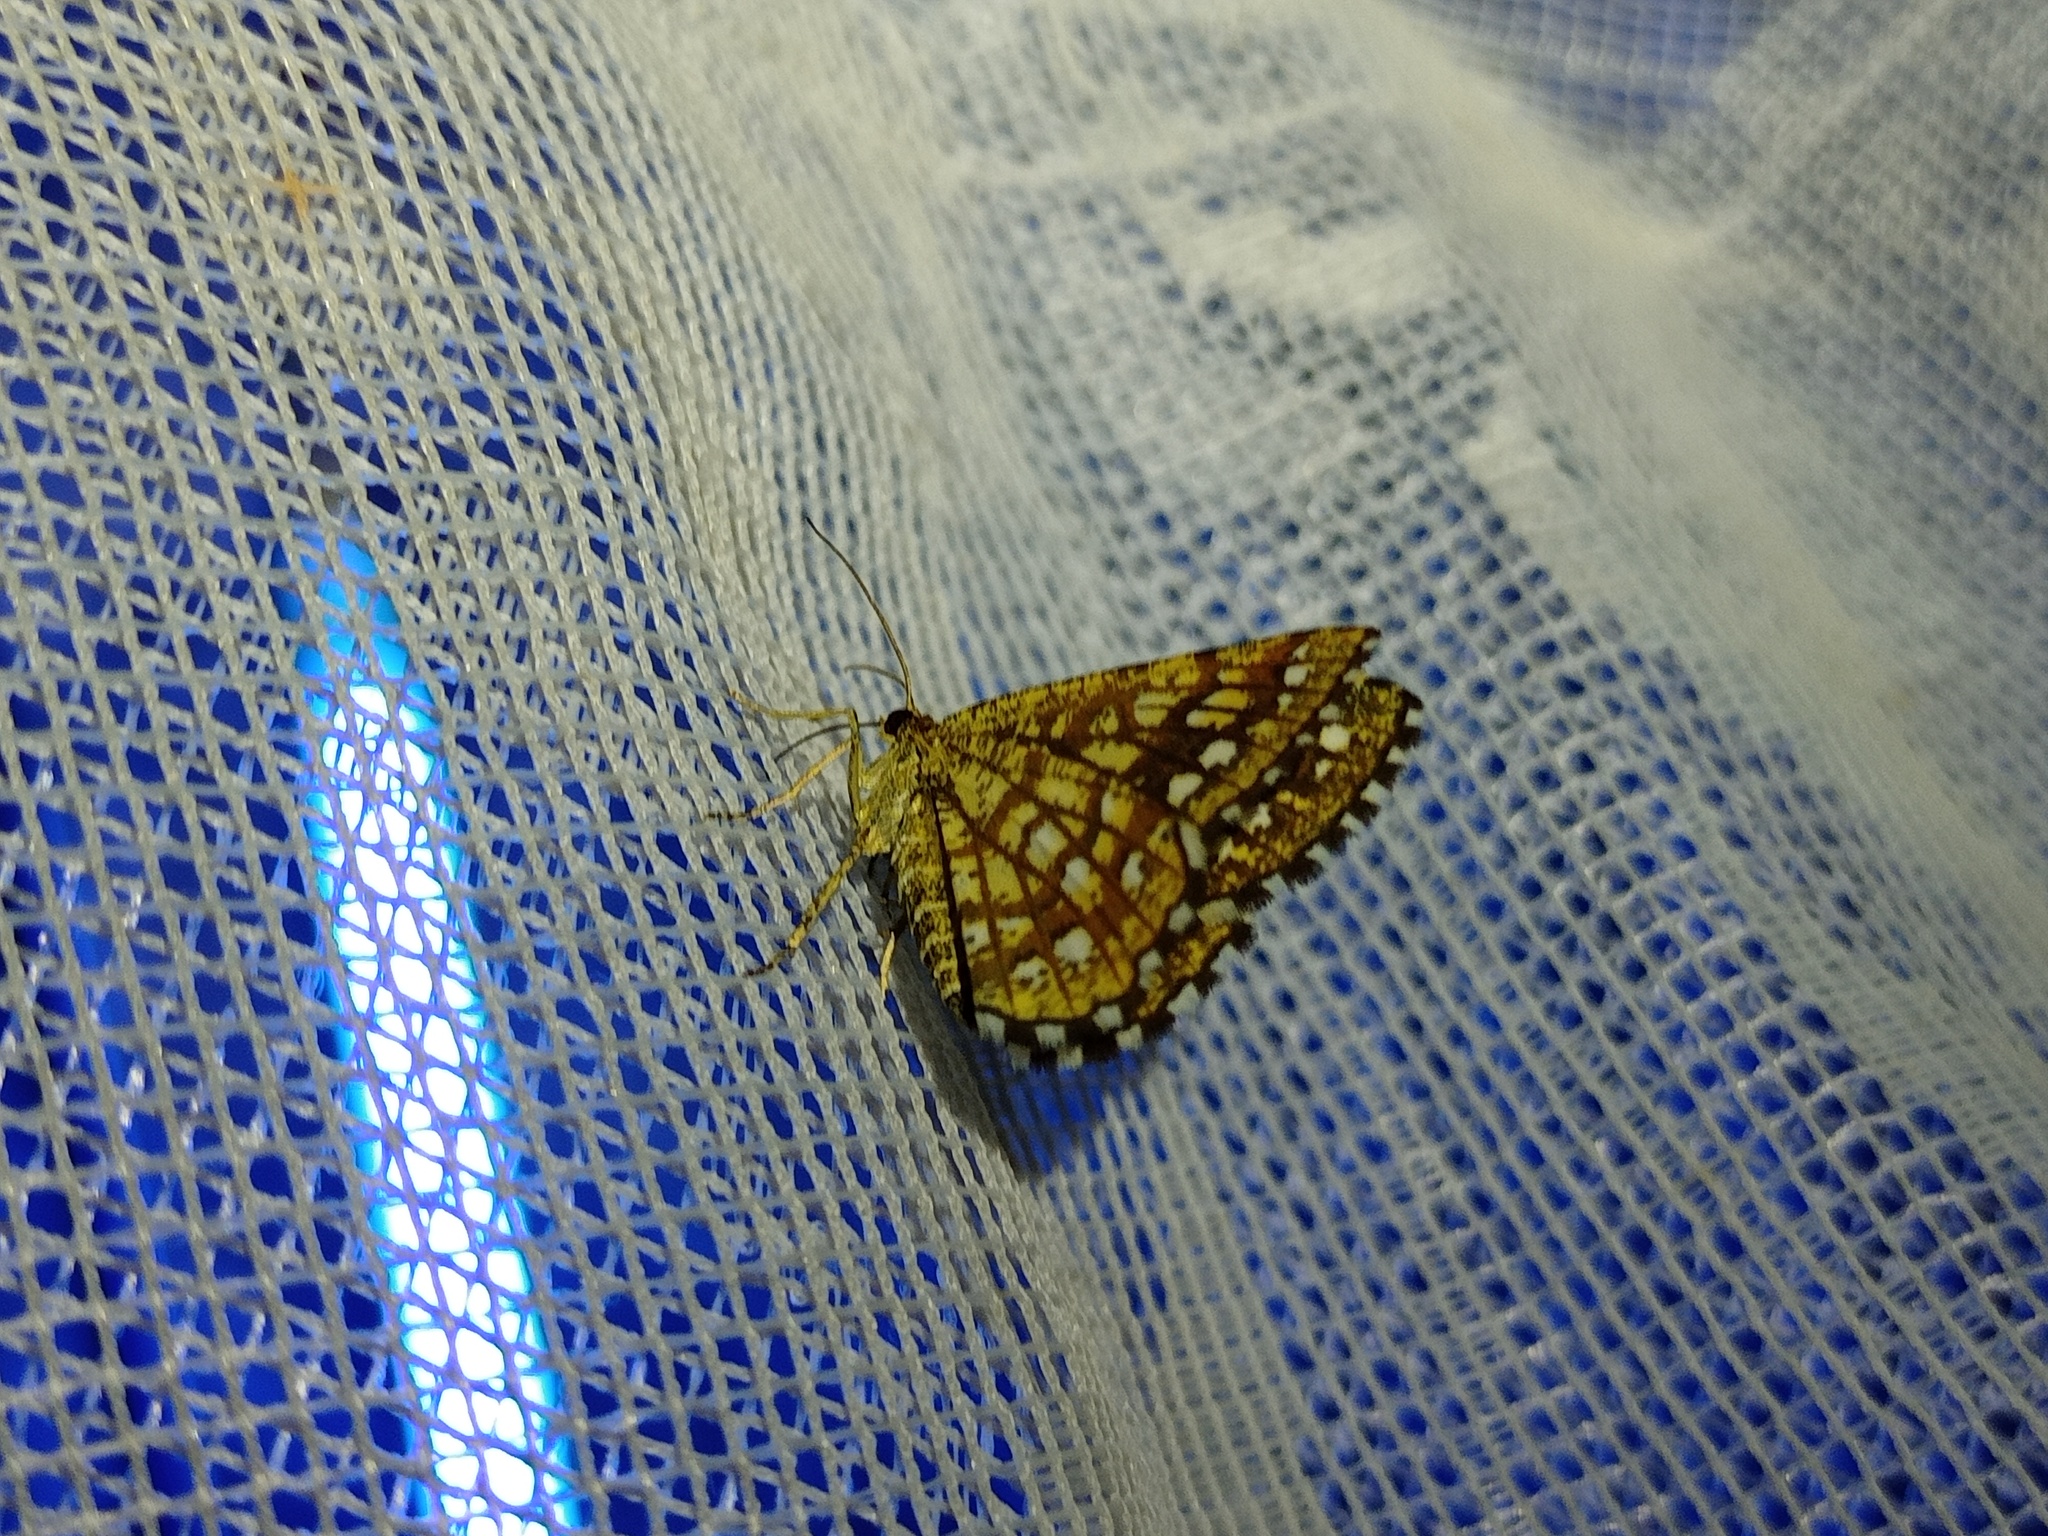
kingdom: Animalia
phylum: Arthropoda
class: Insecta
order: Lepidoptera
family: Geometridae
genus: Chiasmia
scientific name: Chiasmia clathrata
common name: Latticed heath
